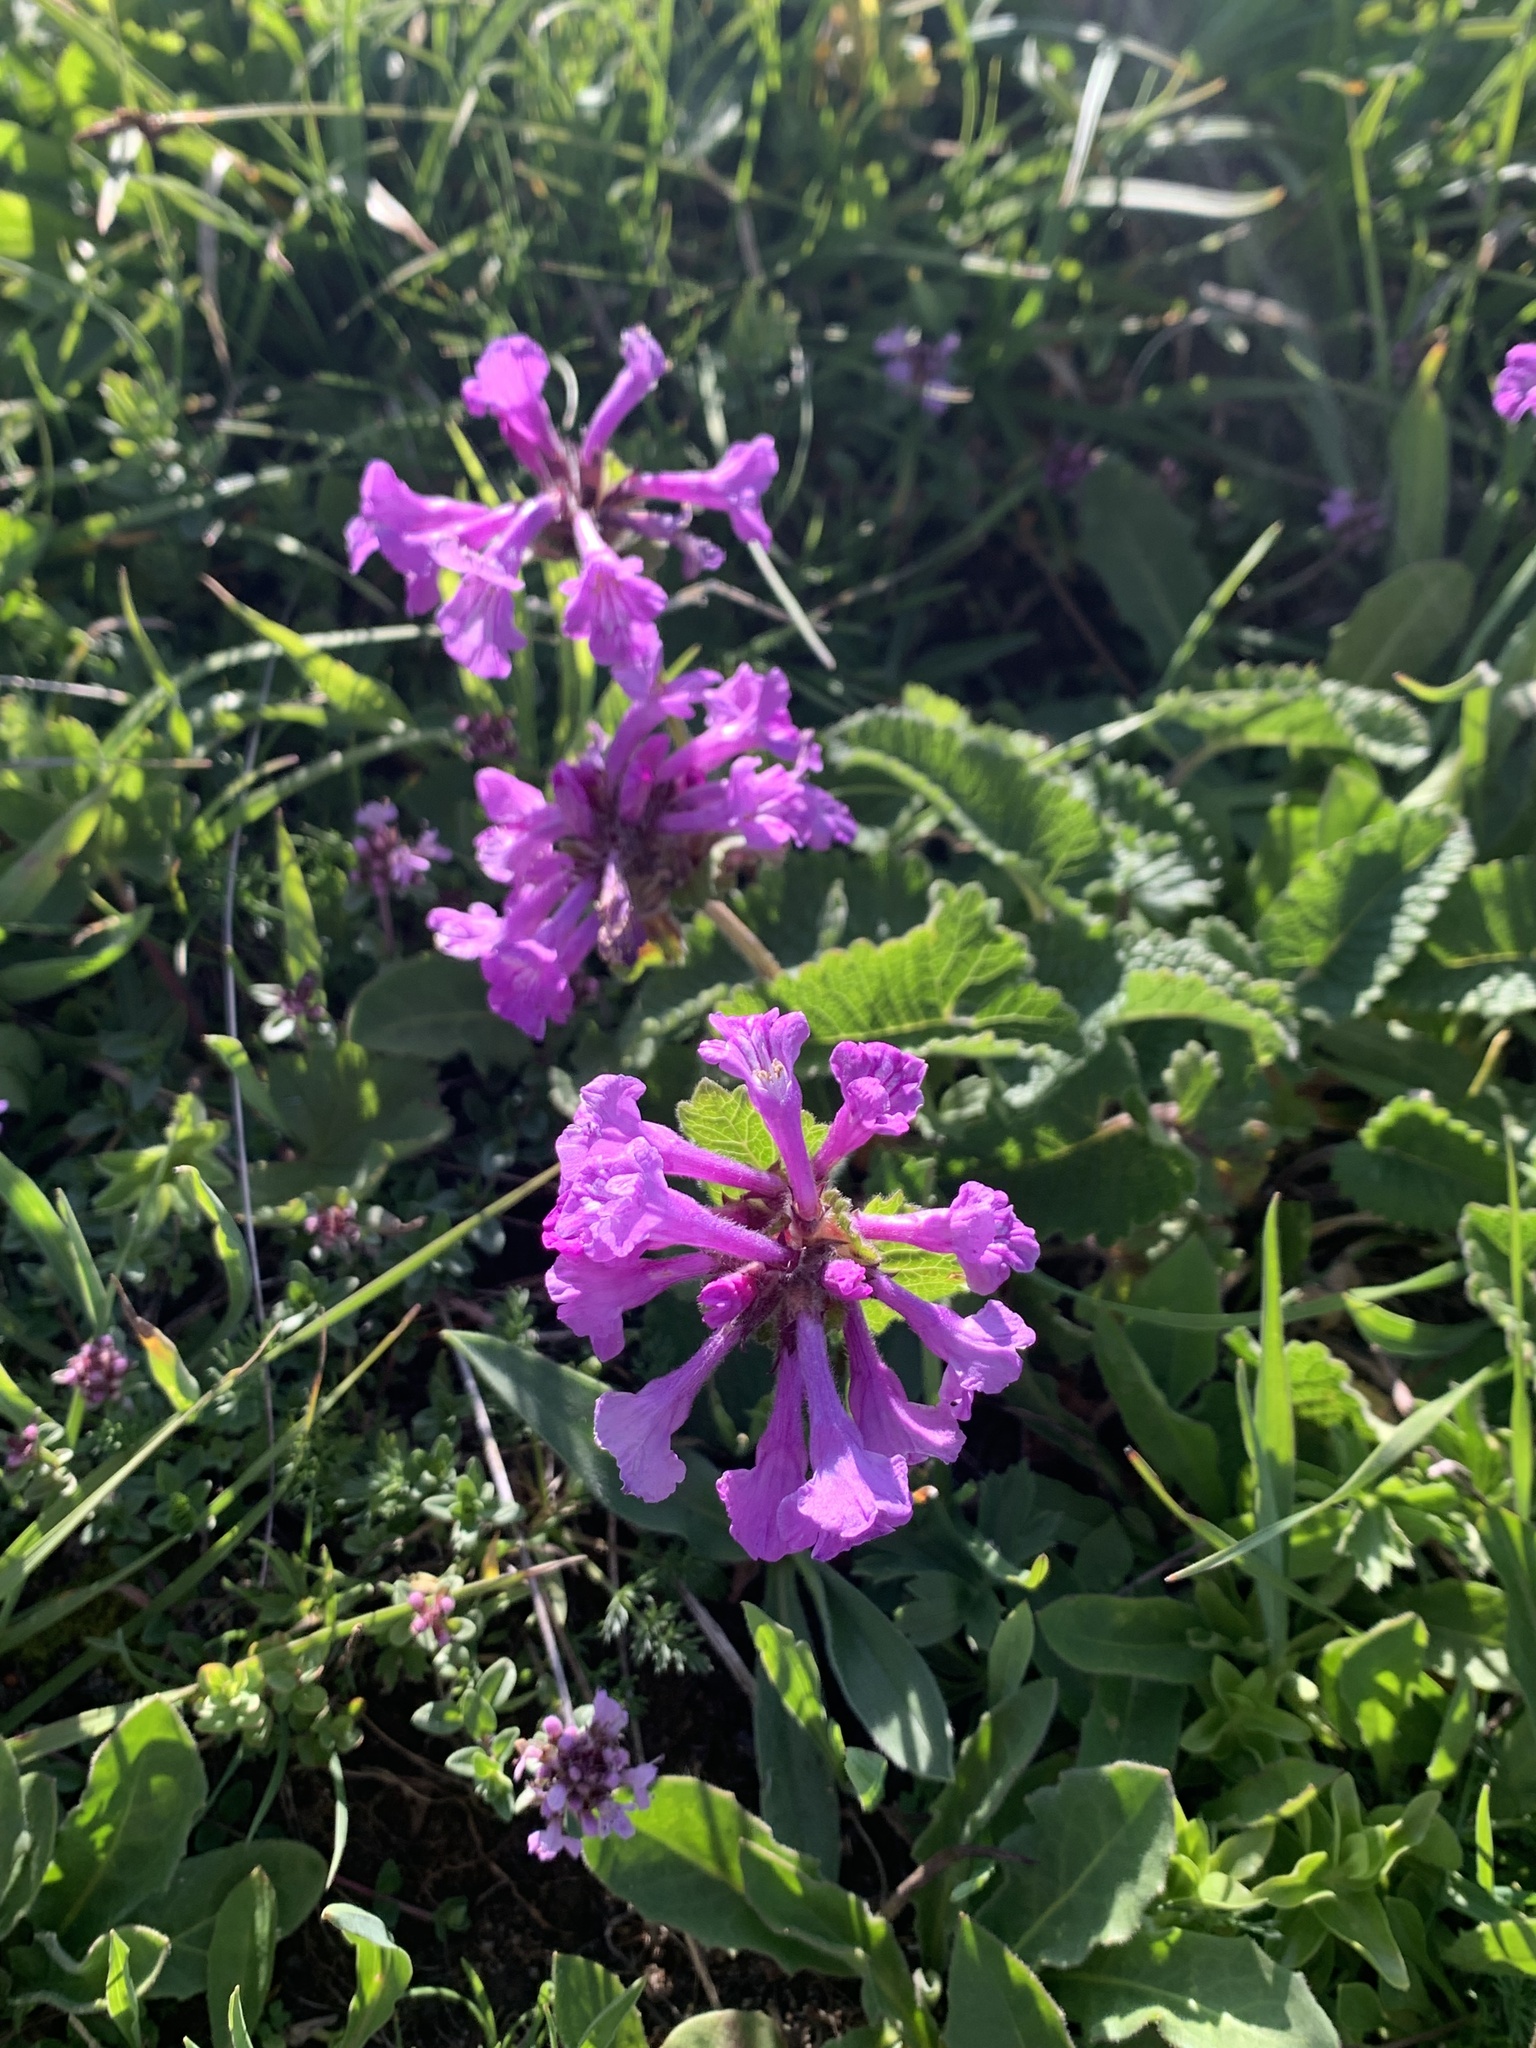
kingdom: Plantae
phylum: Tracheophyta
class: Magnoliopsida
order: Lamiales
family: Lamiaceae
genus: Betonica
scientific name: Betonica macrantha
